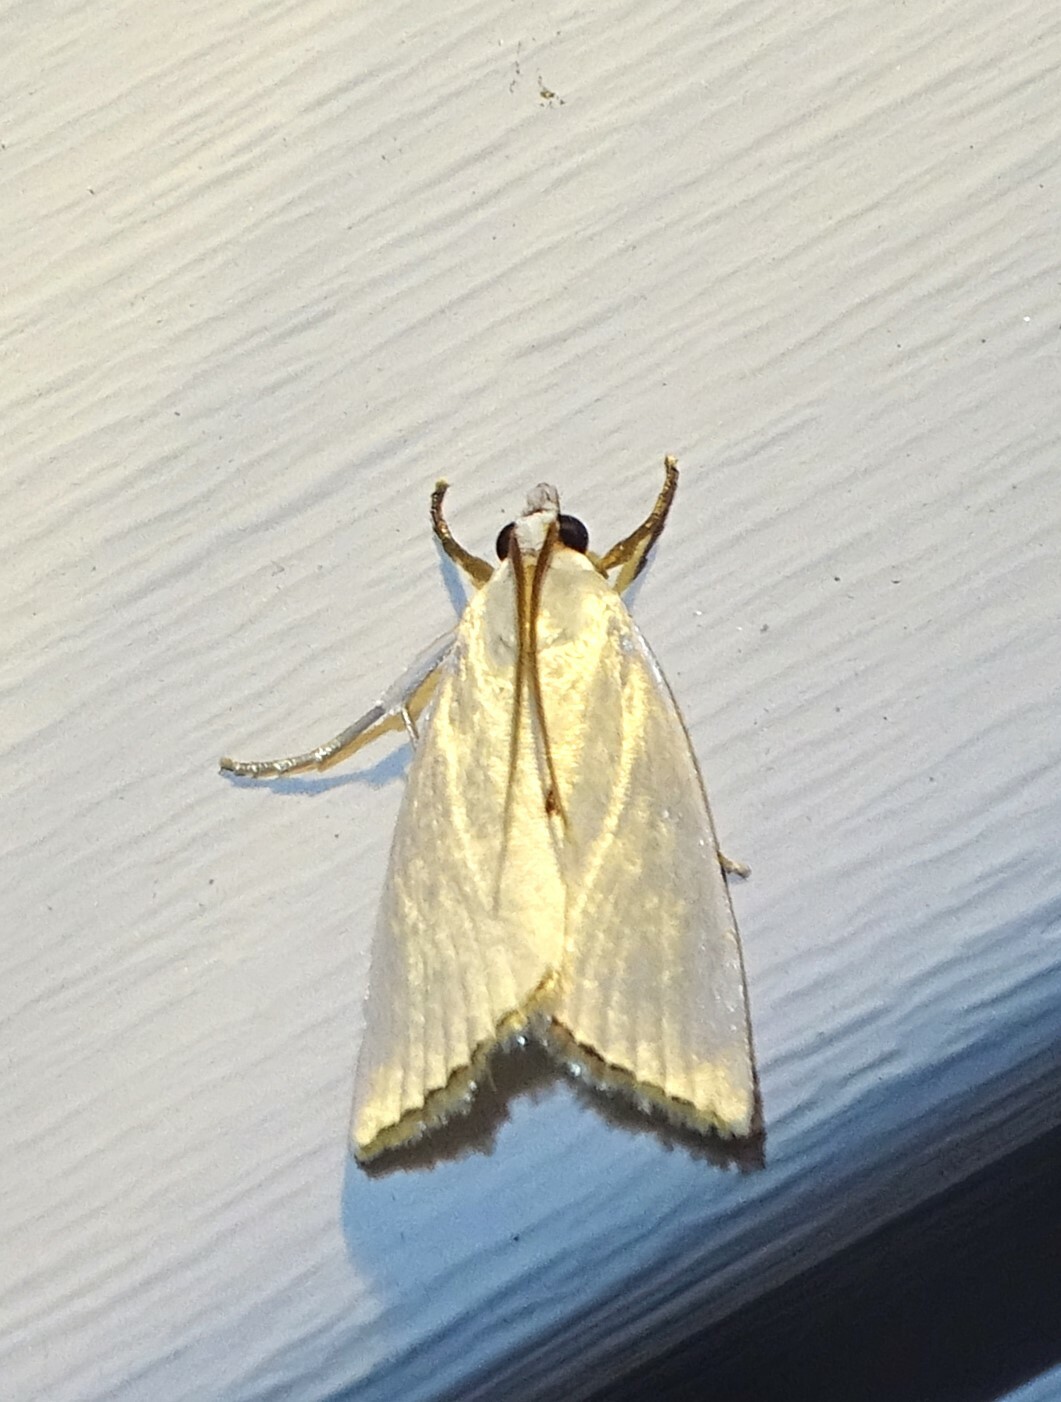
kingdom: Animalia
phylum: Arthropoda
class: Insecta
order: Lepidoptera
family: Crambidae
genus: Argyria
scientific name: Argyria nivalis
